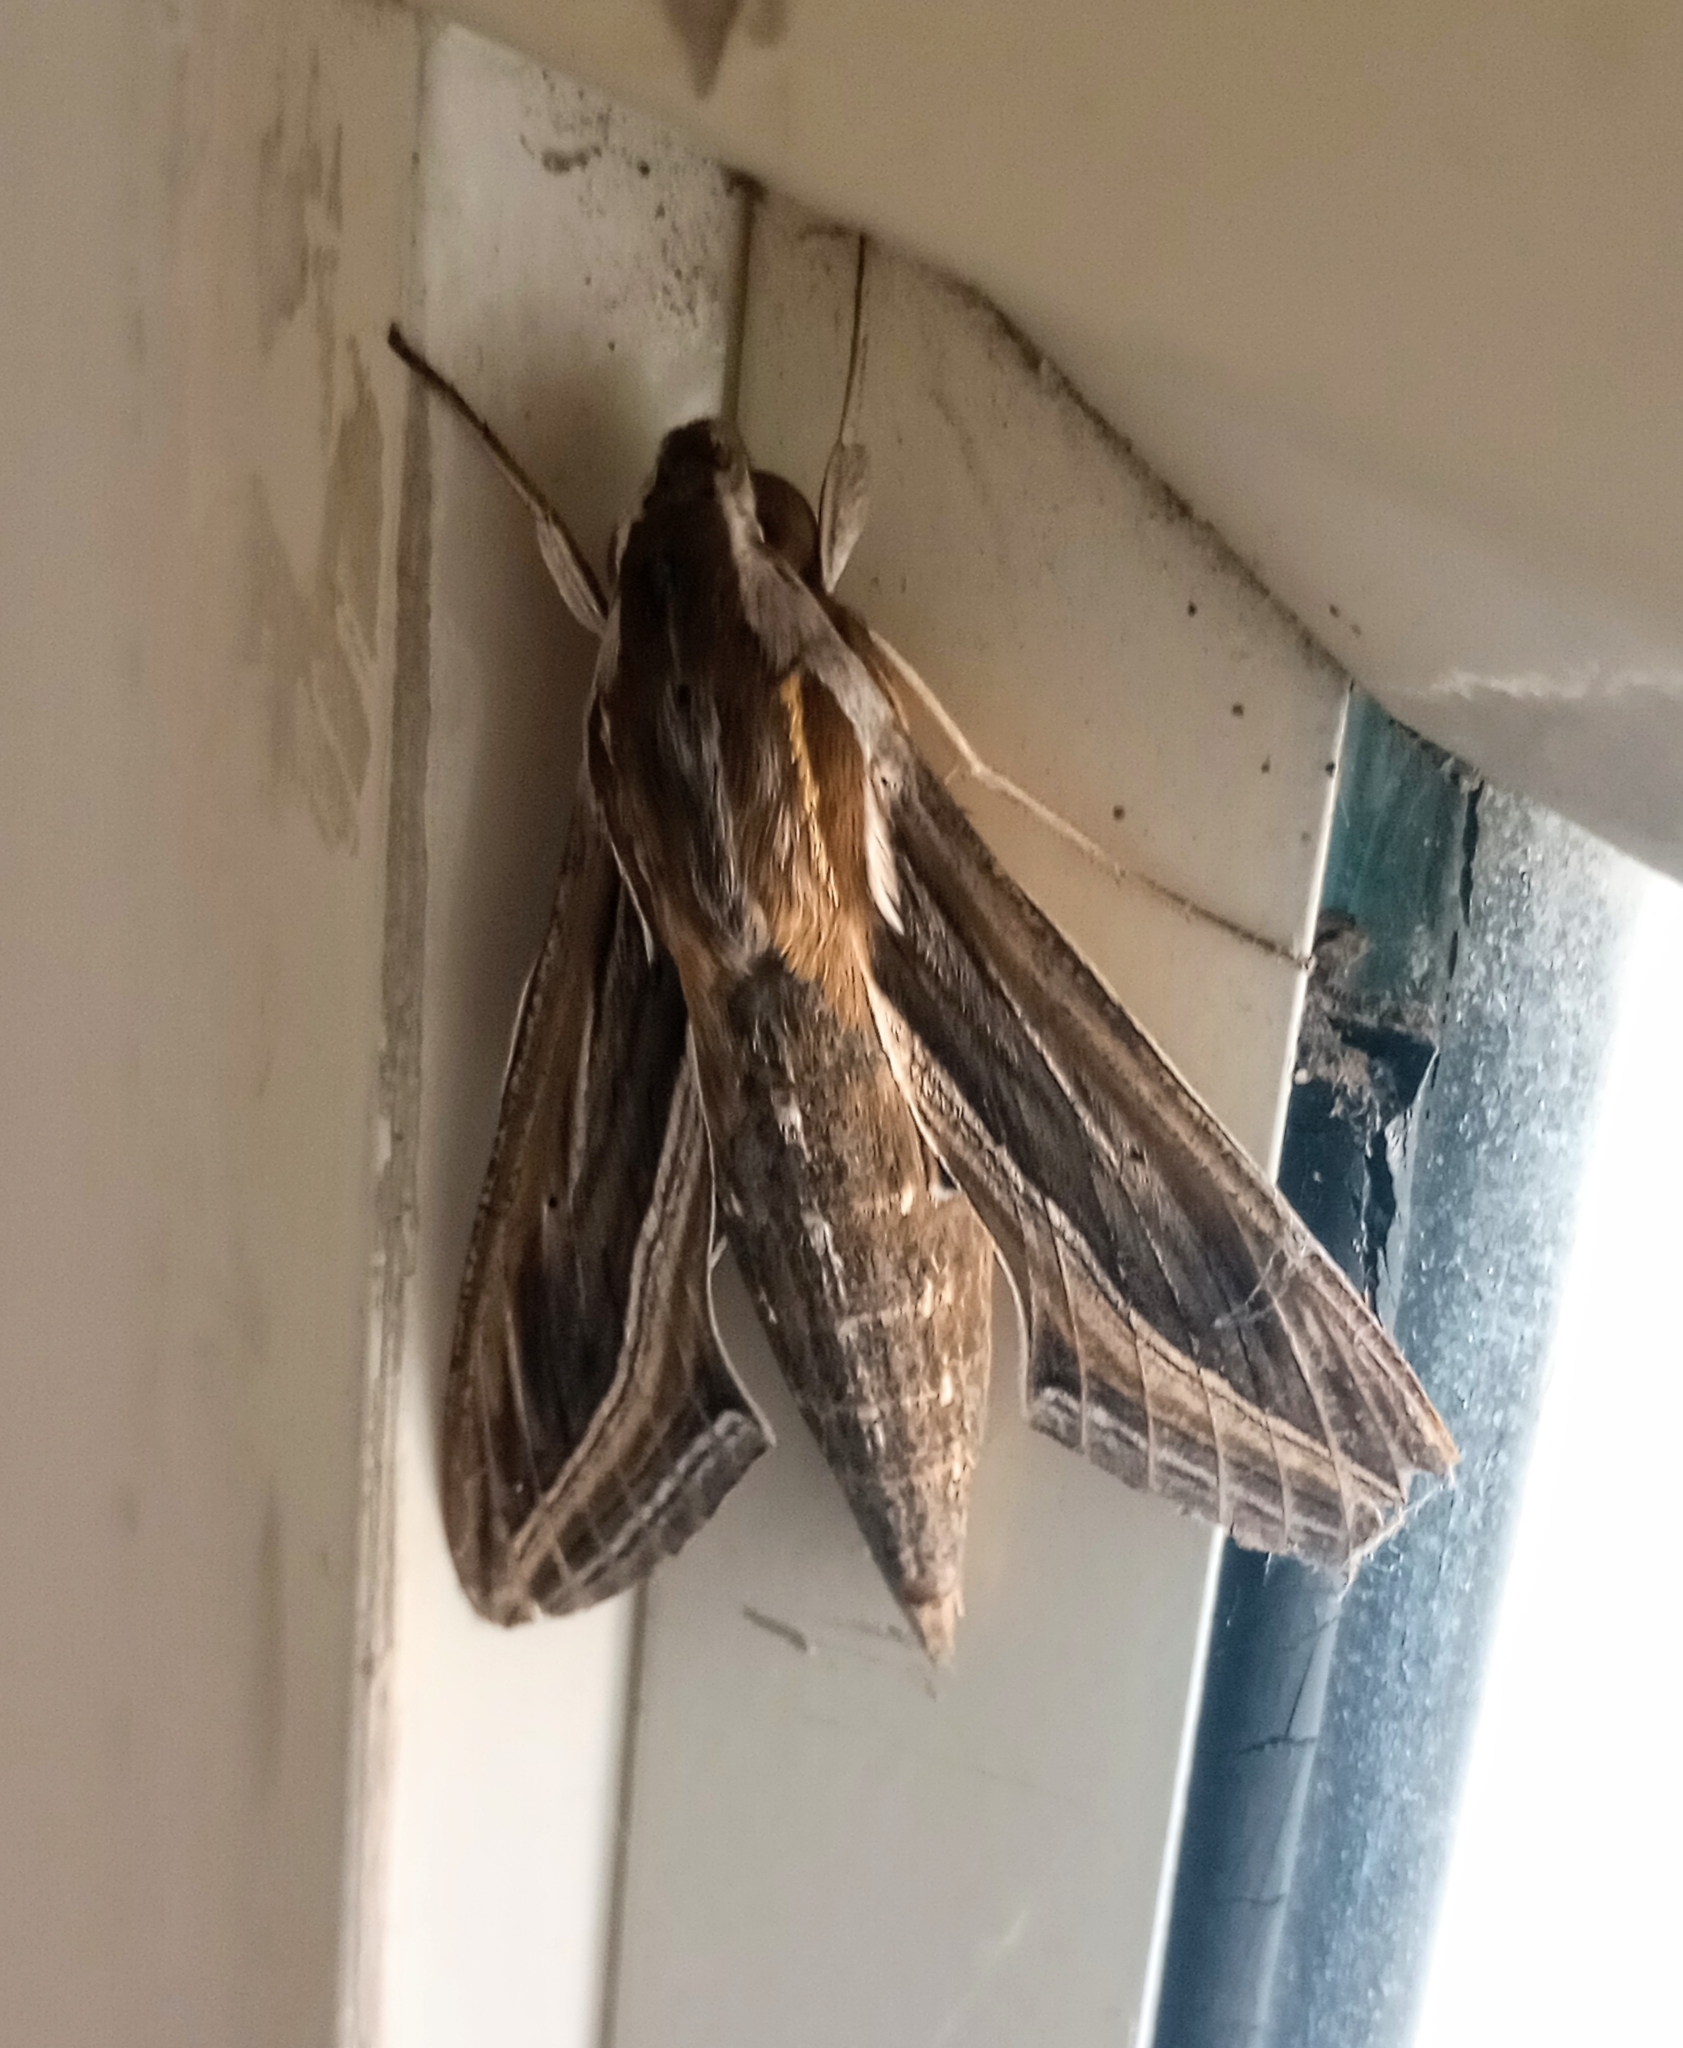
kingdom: Animalia
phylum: Arthropoda
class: Insecta
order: Lepidoptera
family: Sphingidae
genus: Hippotion
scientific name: Hippotion celerio
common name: Silver-striped hawk-moth
